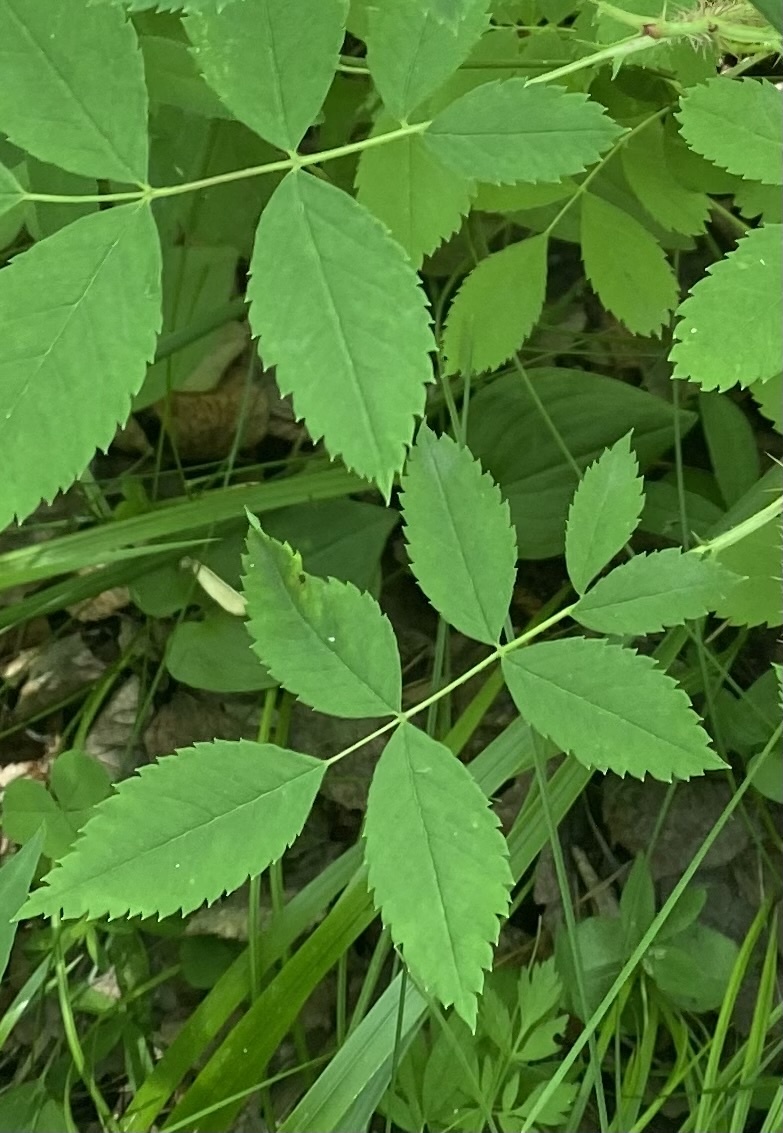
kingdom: Plantae
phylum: Tracheophyta
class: Magnoliopsida
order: Rosales
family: Rosaceae
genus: Rosa
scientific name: Rosa acicularis
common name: Prickly rose
